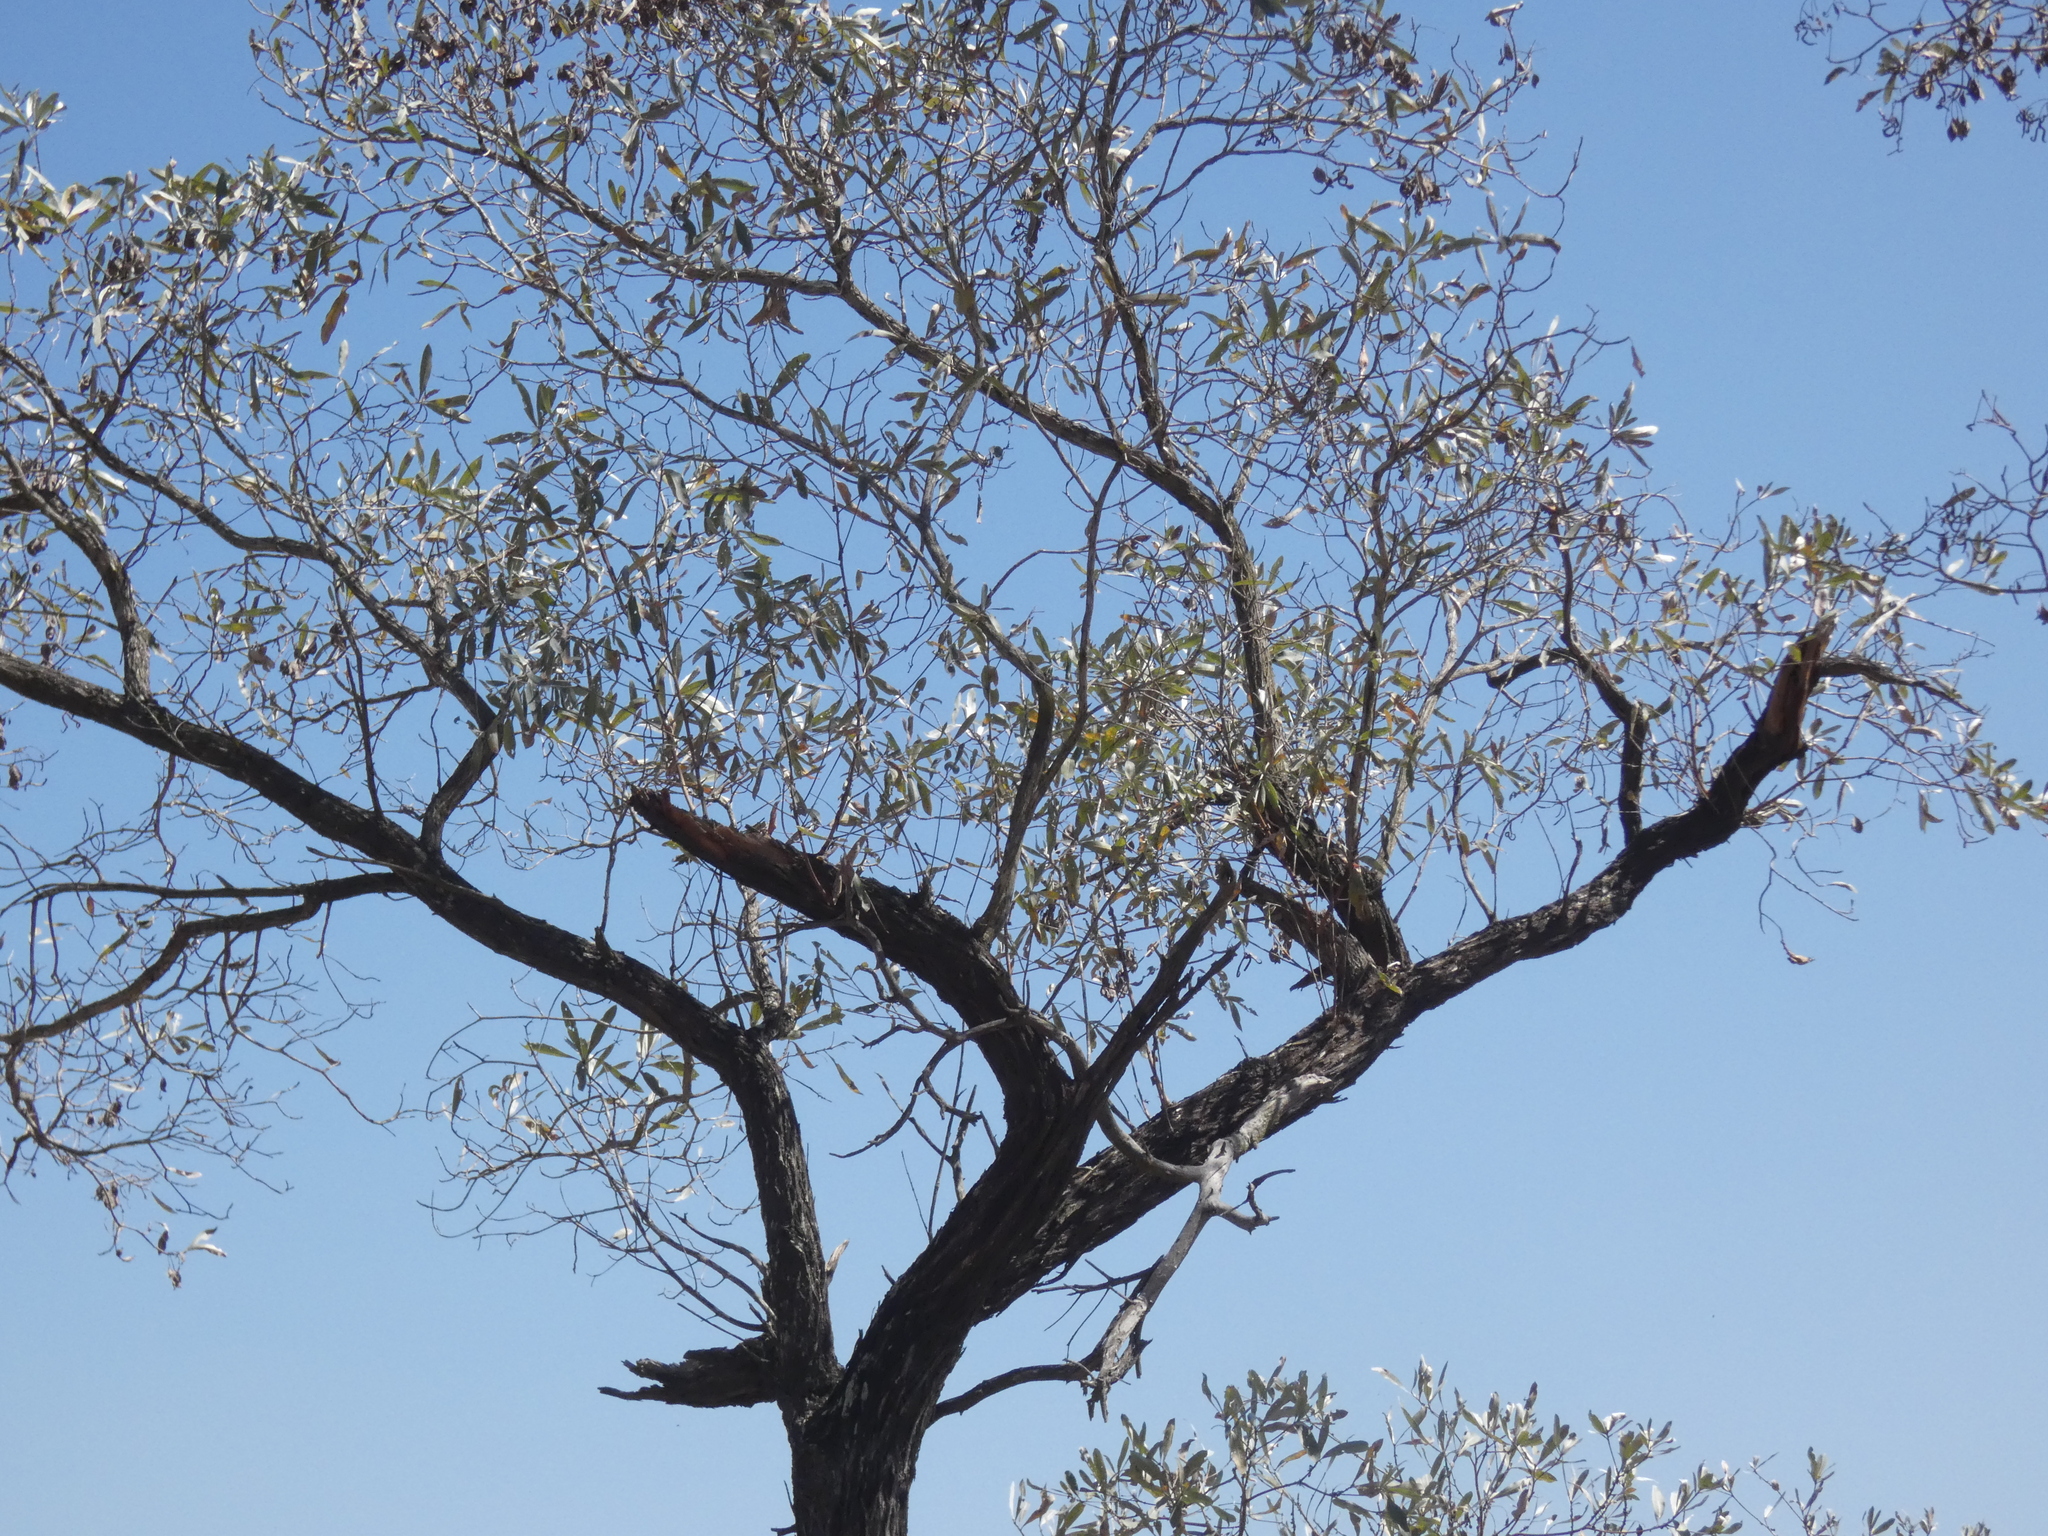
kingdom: Plantae
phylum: Tracheophyta
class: Magnoliopsida
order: Myrtales
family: Combretaceae
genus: Terminalia
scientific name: Terminalia sericea
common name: Clusterleaf
